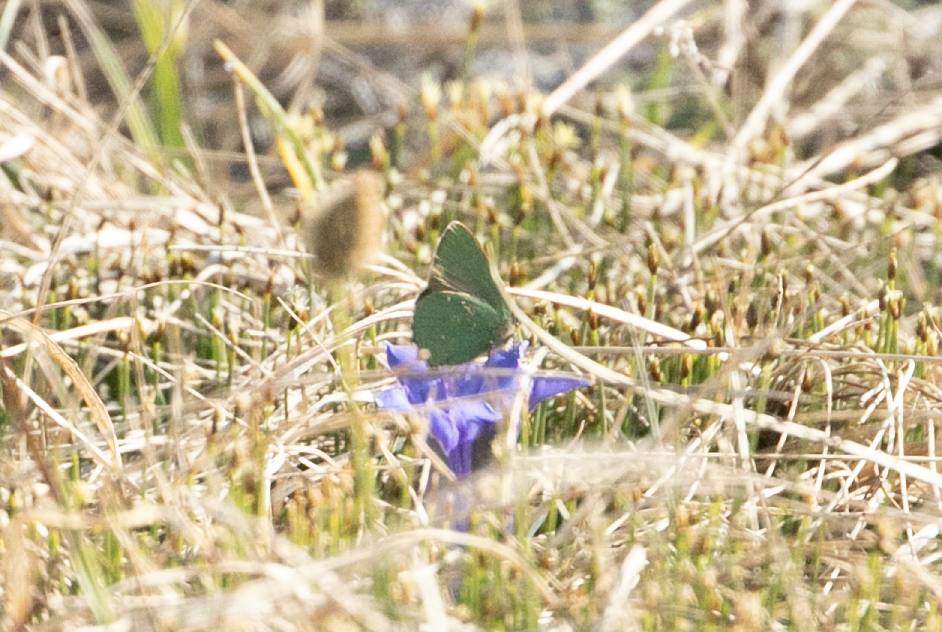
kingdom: Animalia
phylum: Arthropoda
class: Insecta
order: Lepidoptera
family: Lycaenidae
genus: Callophrys
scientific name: Callophrys rubi
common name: Green hairstreak
